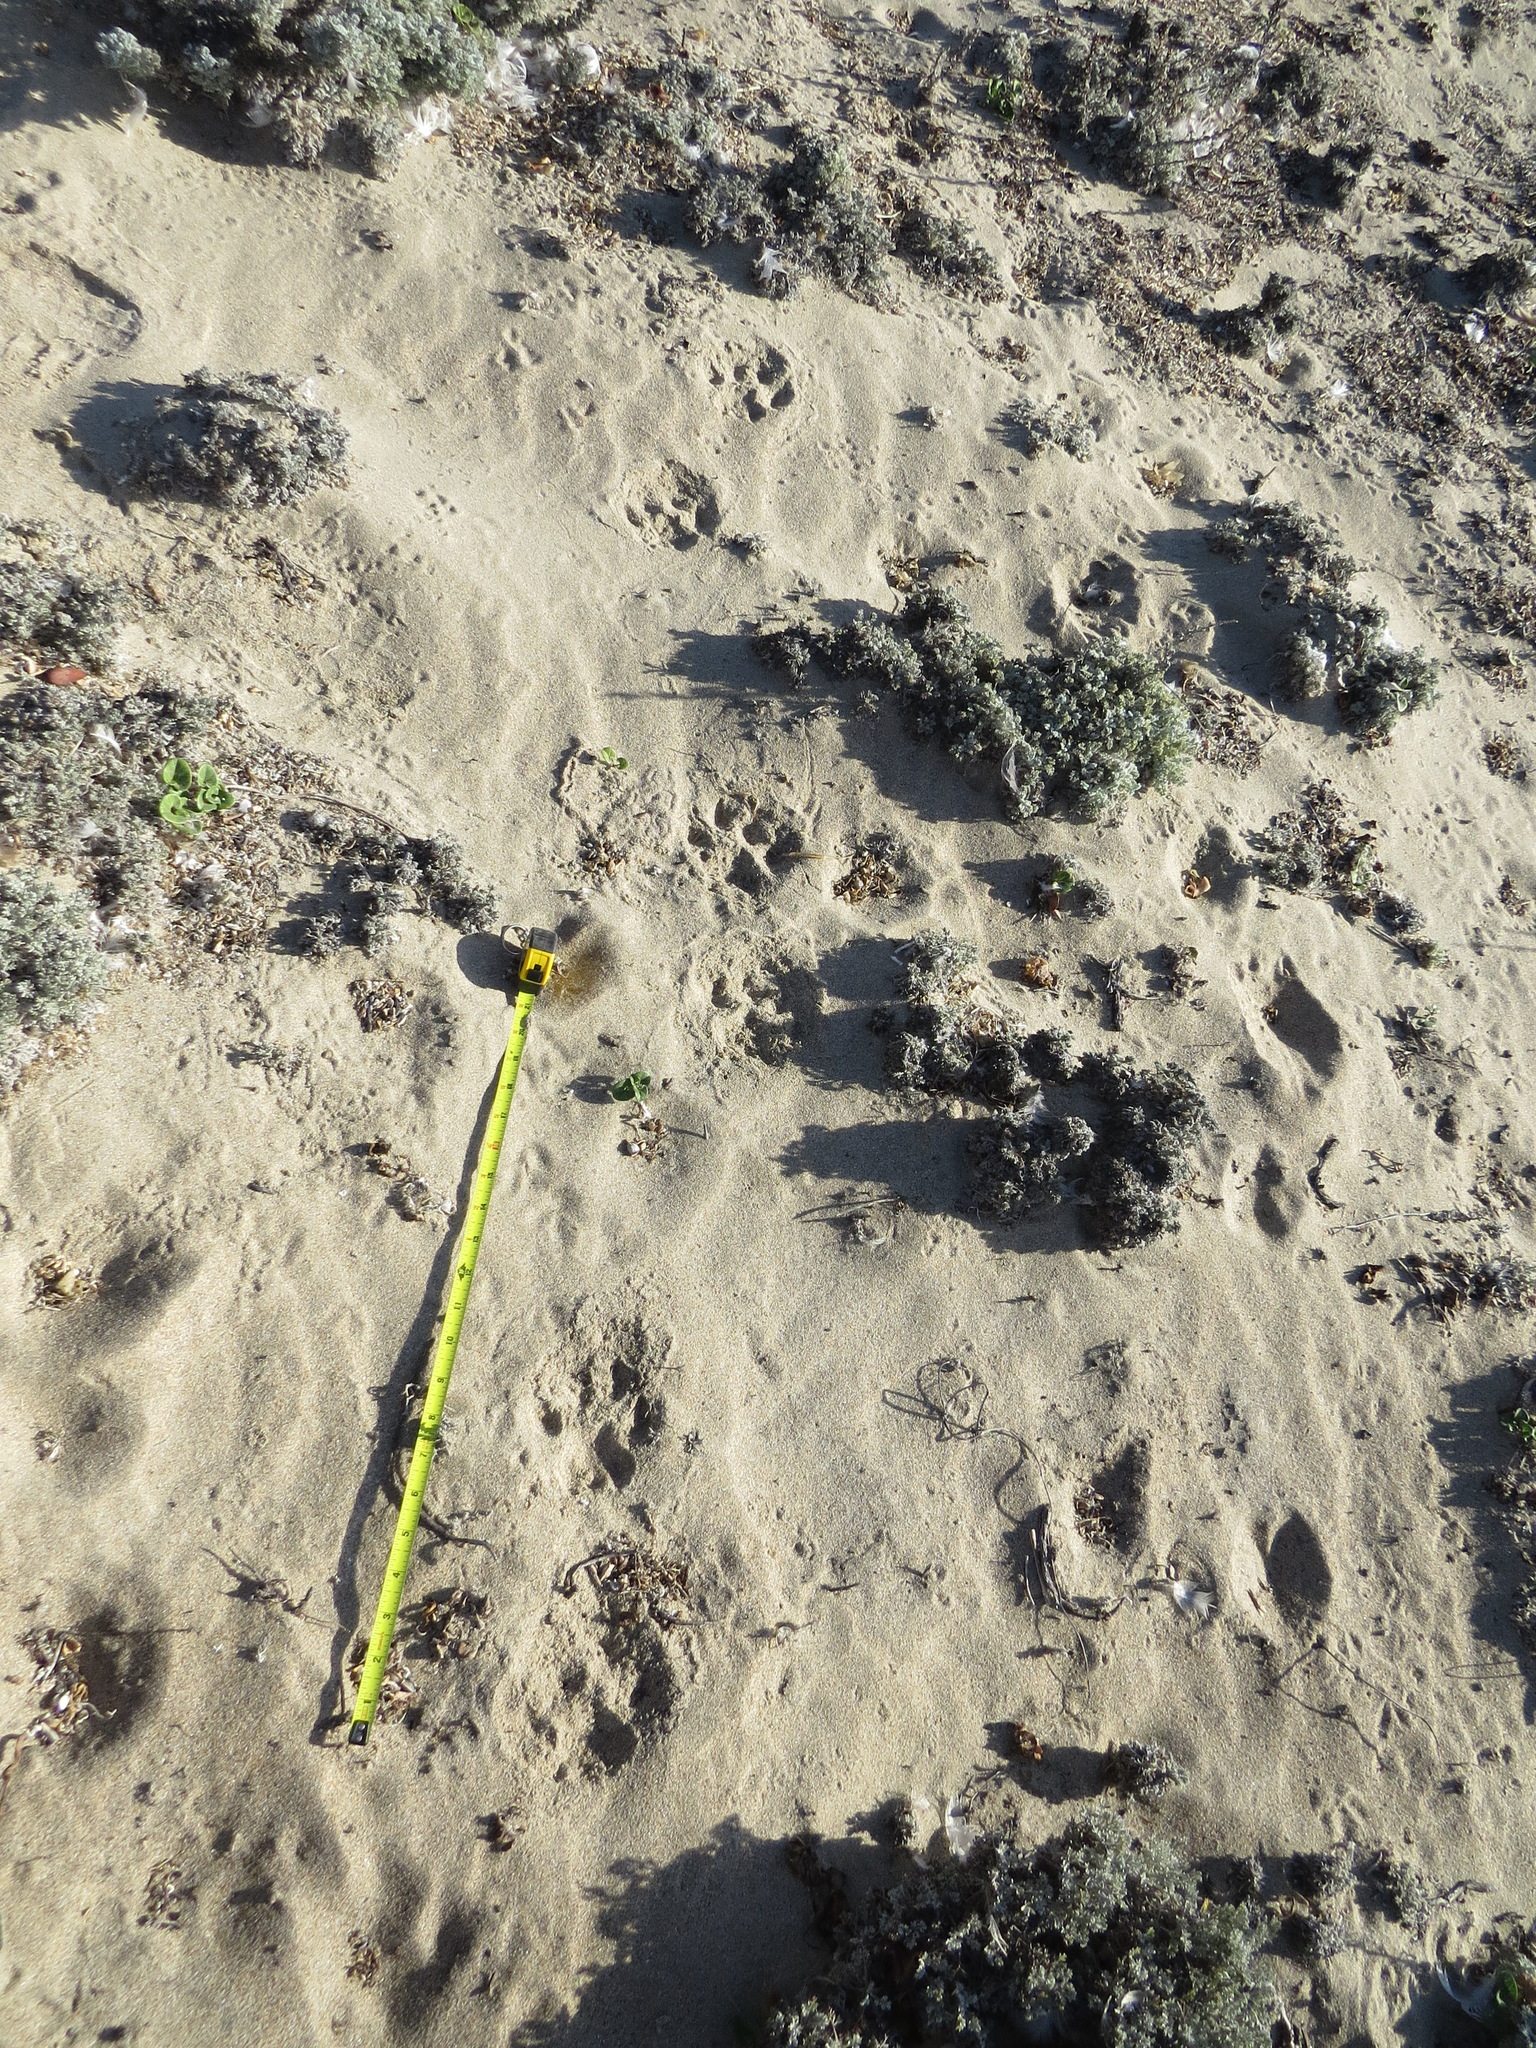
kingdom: Animalia
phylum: Chordata
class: Mammalia
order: Carnivora
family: Felidae
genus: Puma
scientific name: Puma concolor
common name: Puma
